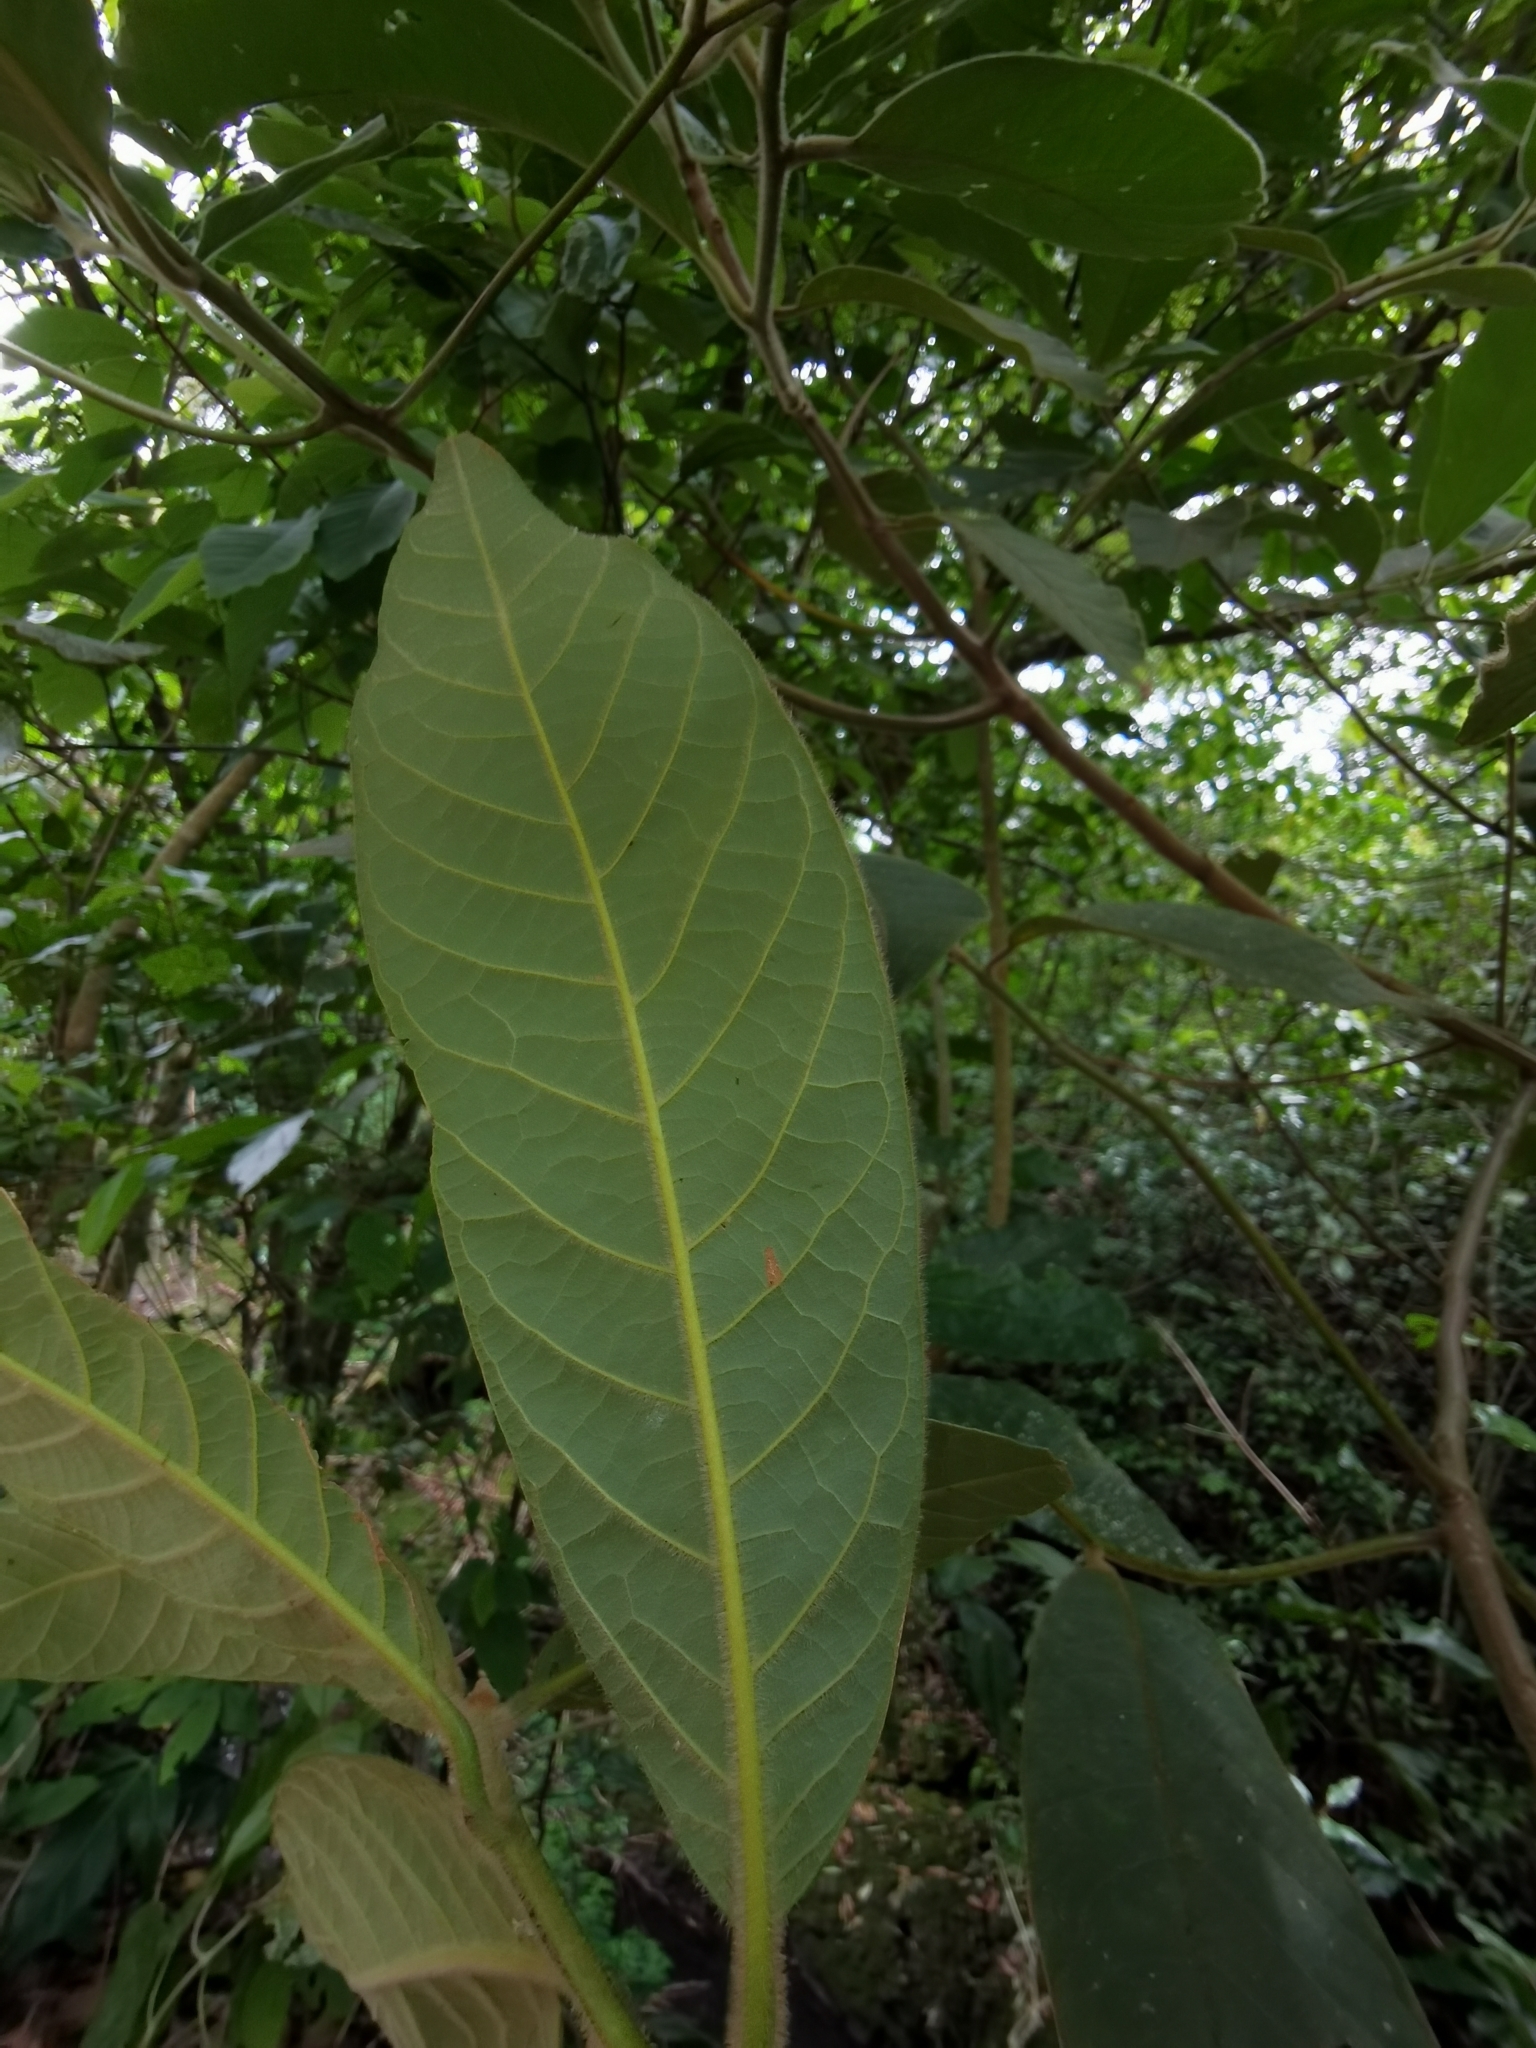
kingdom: Plantae
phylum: Tracheophyta
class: Magnoliopsida
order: Laurales
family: Lauraceae
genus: Ocotea
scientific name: Ocotea sinuata
